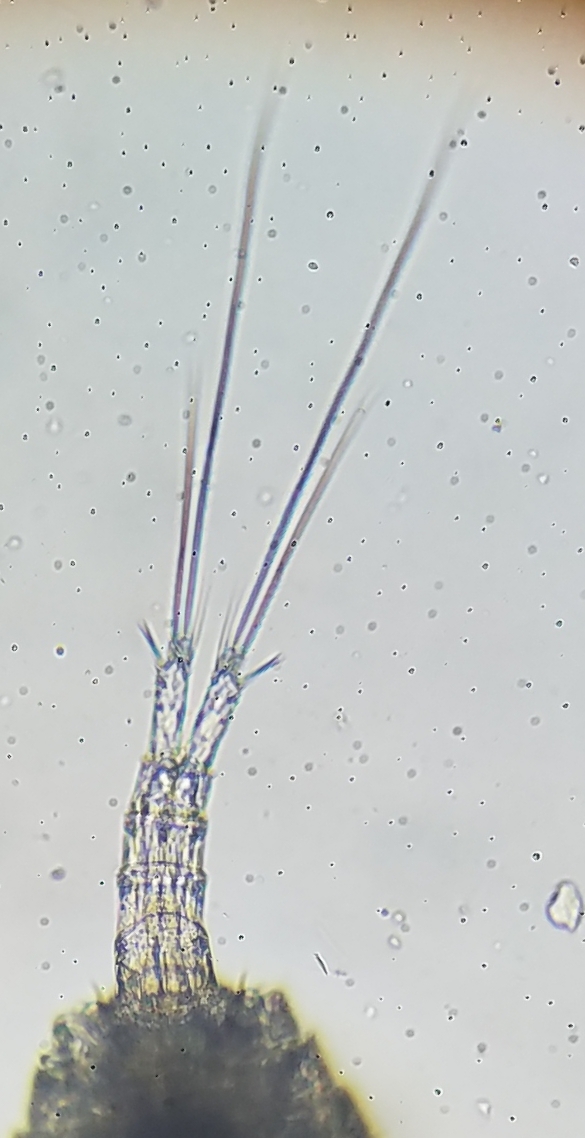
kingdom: Animalia
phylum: Arthropoda
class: Copepoda
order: Cyclopoida
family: Cyclopidae
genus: Eucyclops
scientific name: Eucyclops
